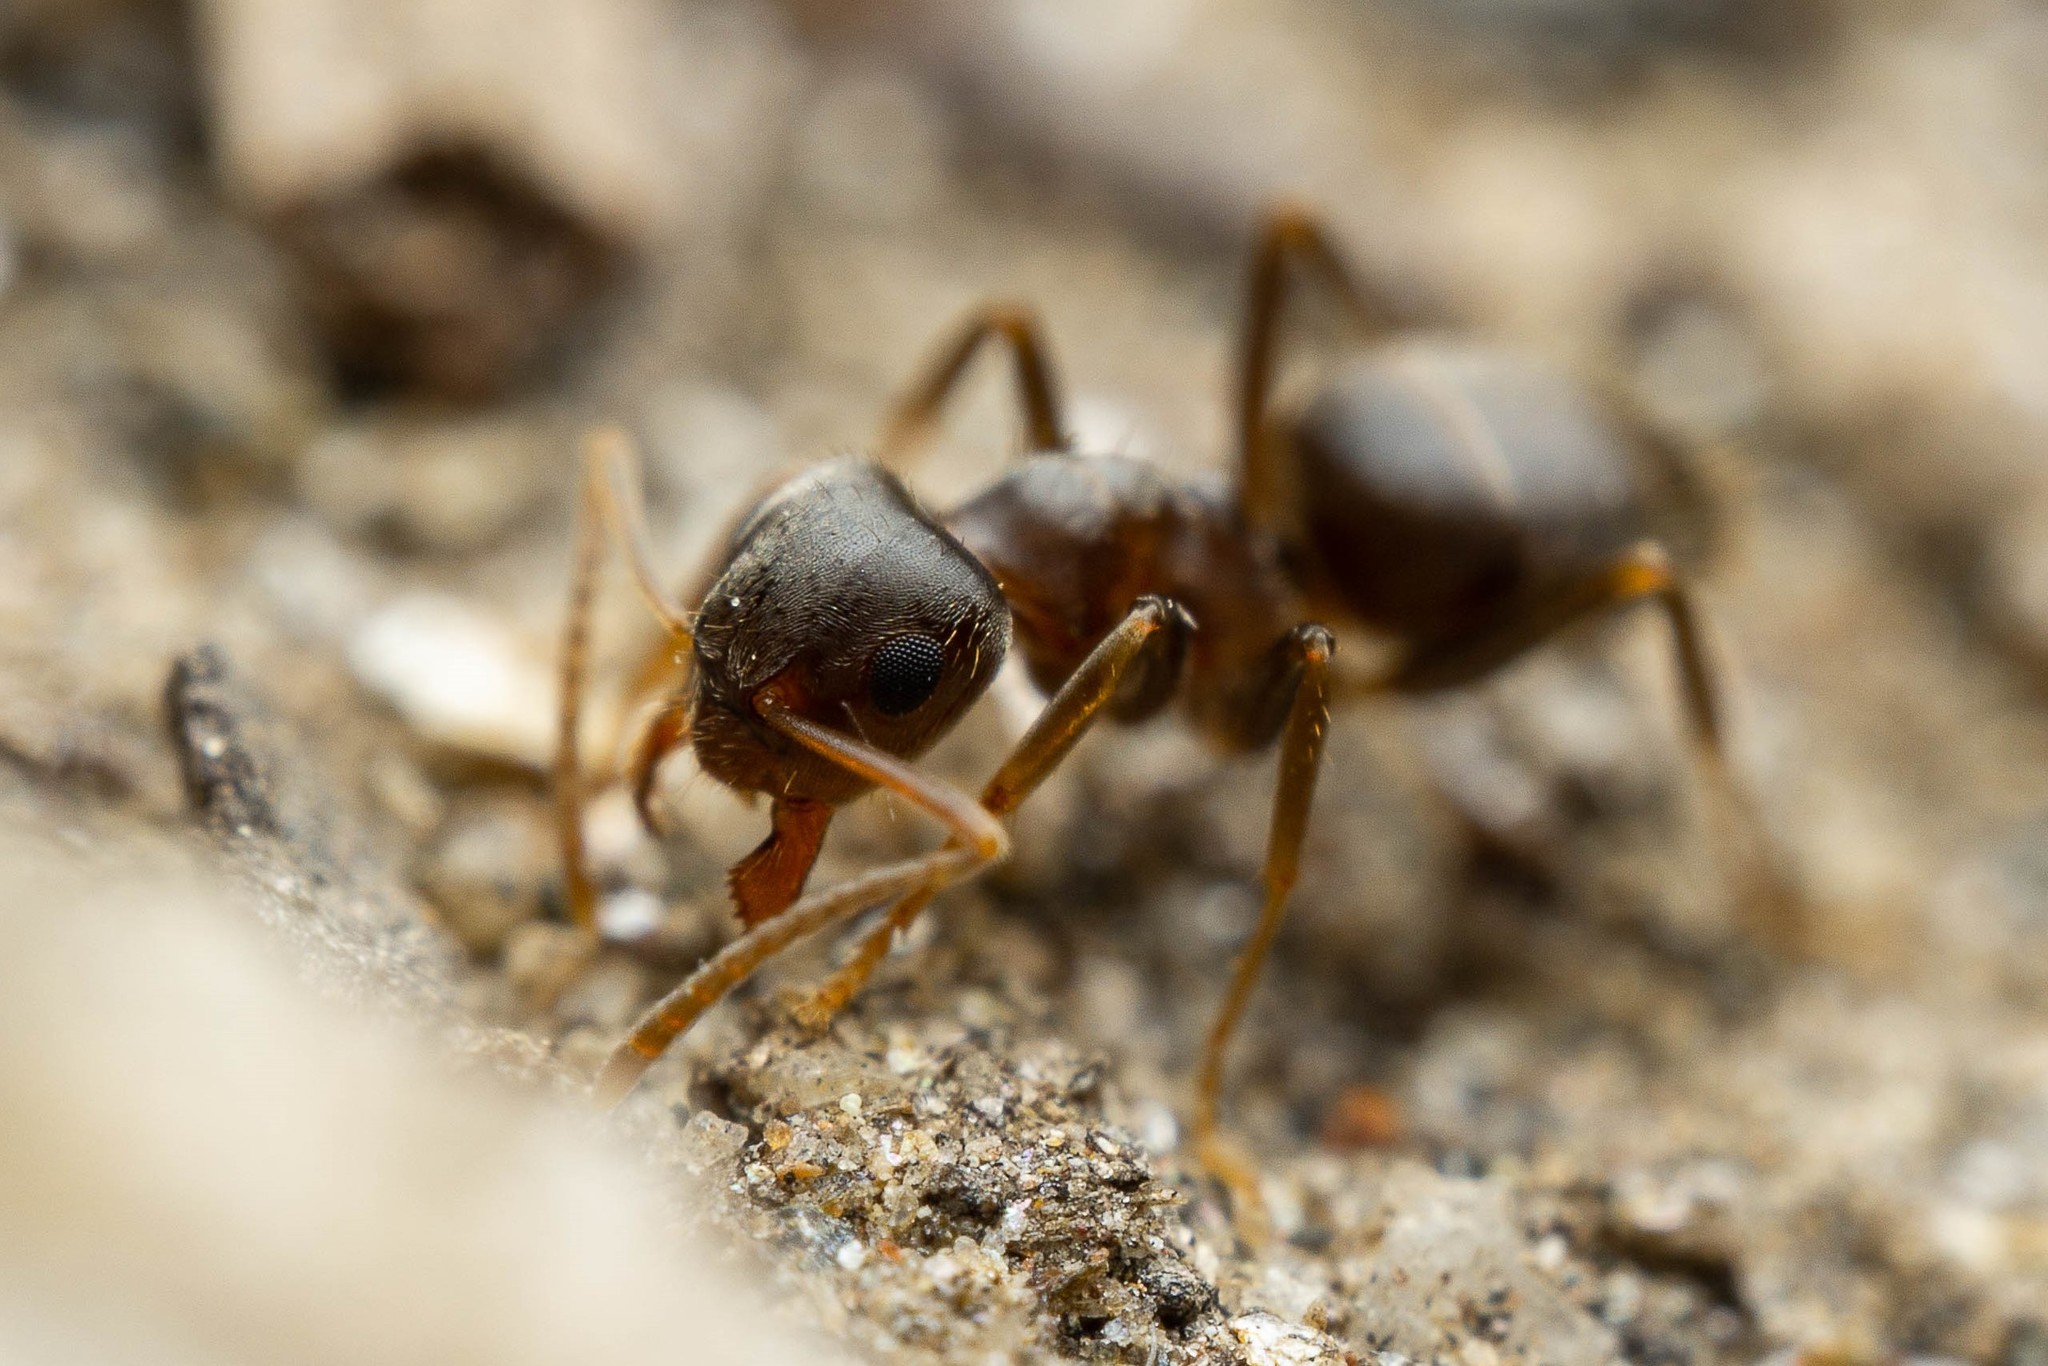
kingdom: Animalia
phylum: Arthropoda
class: Insecta
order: Hymenoptera
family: Formicidae
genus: Lasius
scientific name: Lasius americanus
